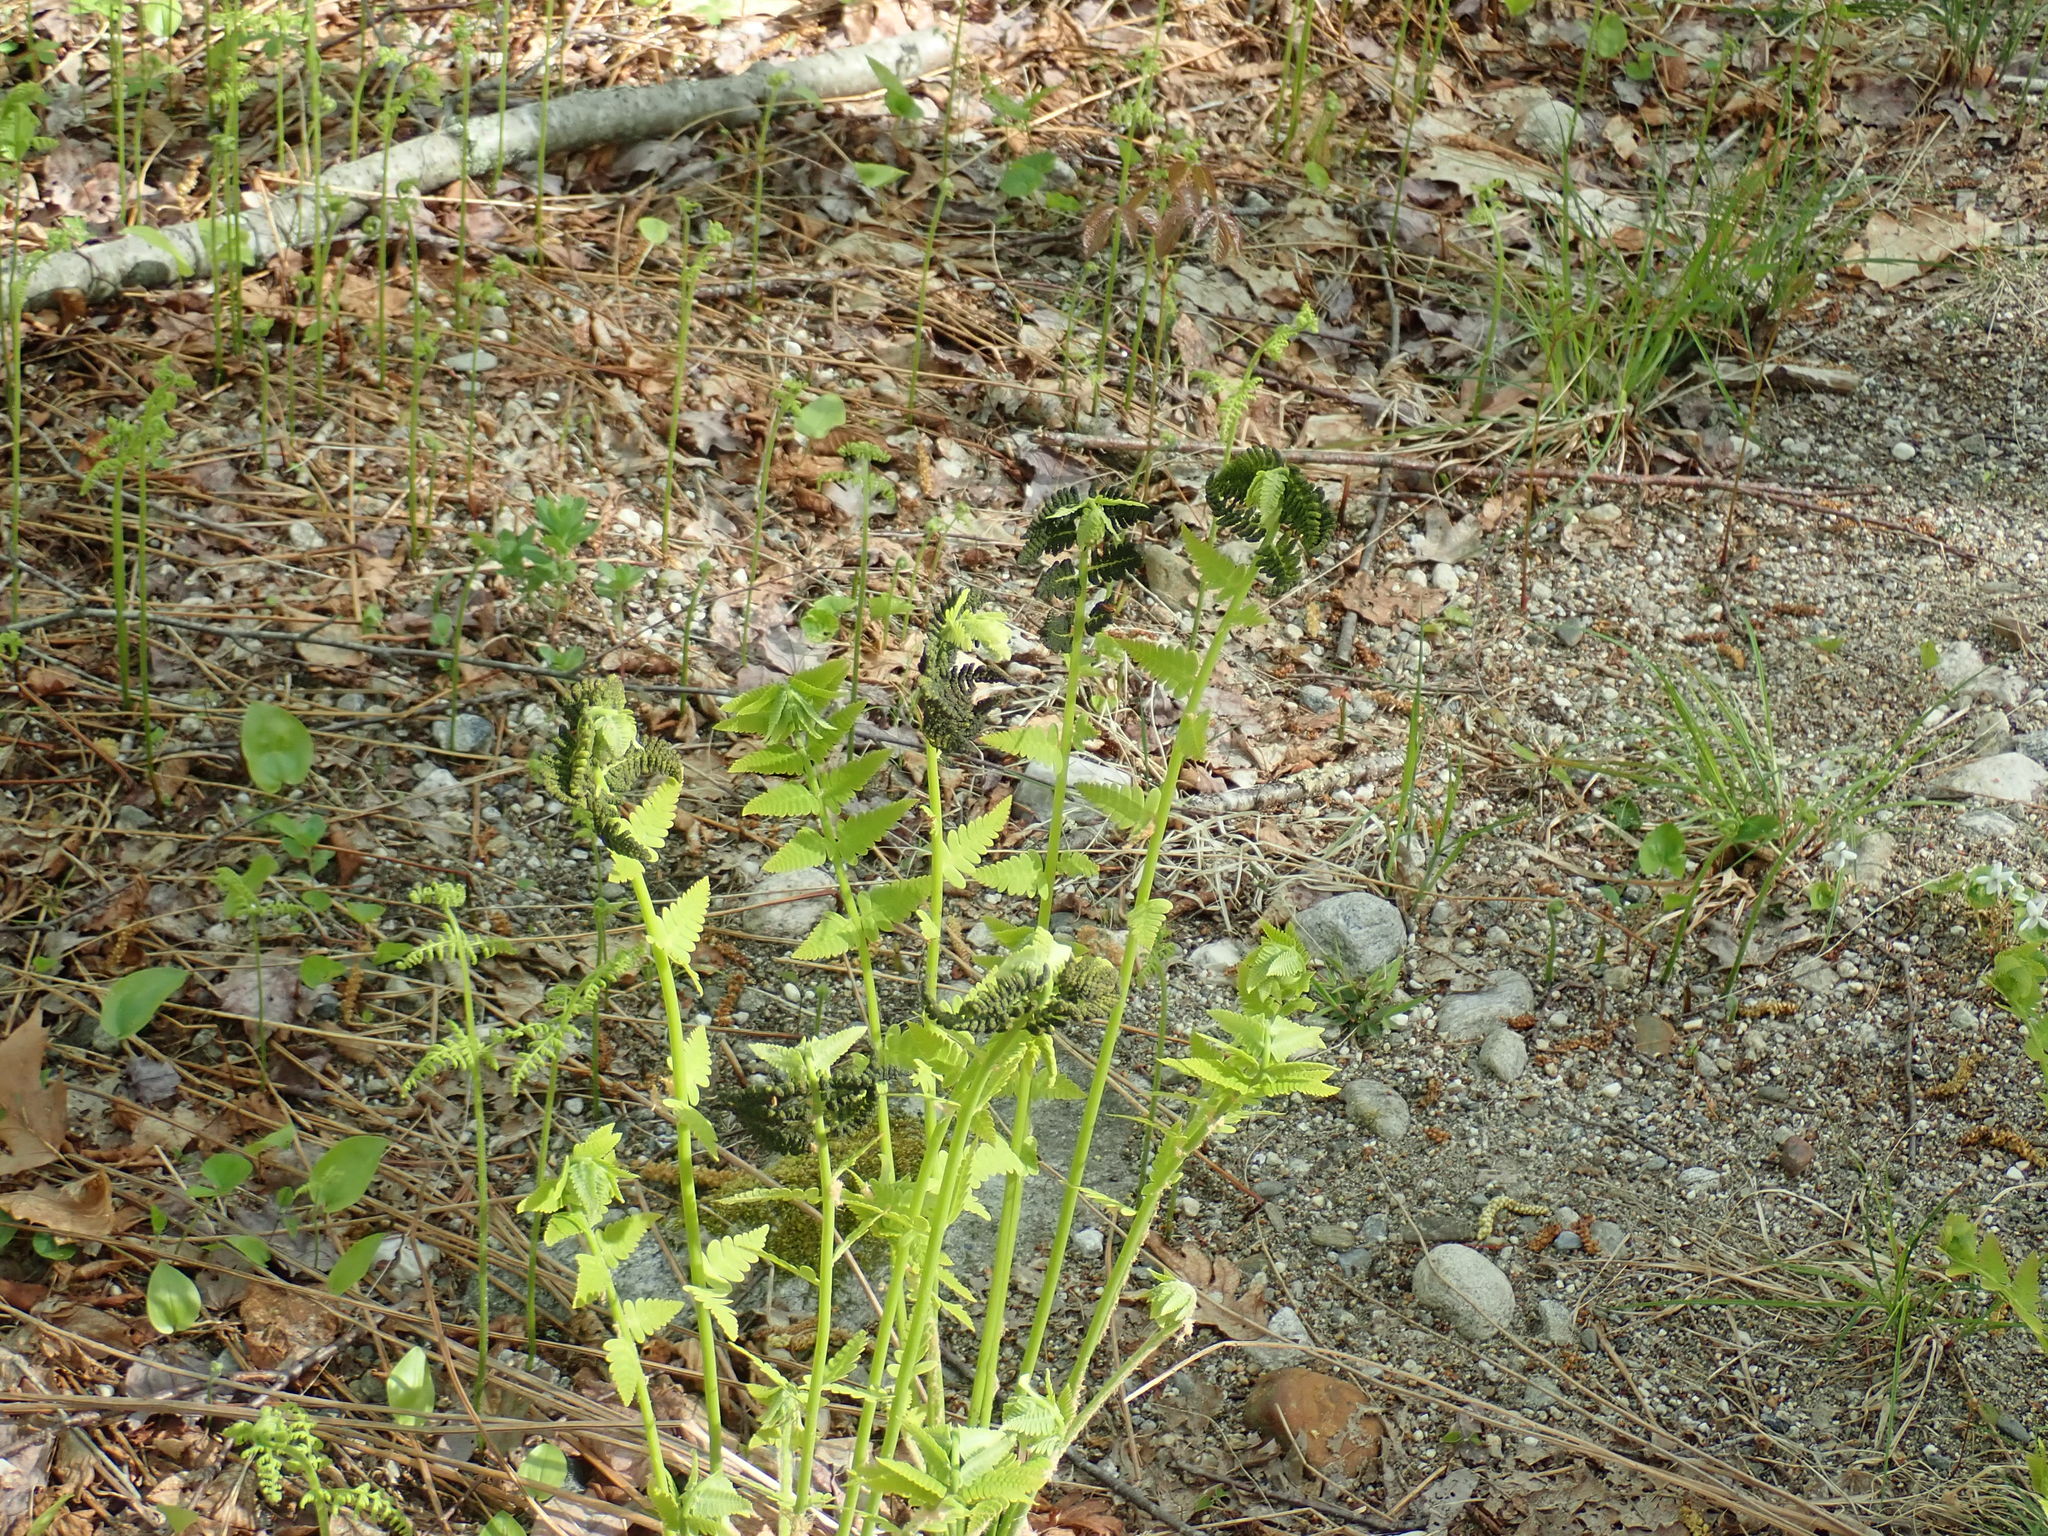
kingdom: Plantae
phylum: Tracheophyta
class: Polypodiopsida
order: Osmundales
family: Osmundaceae
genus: Claytosmunda
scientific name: Claytosmunda claytoniana
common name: Clayton's fern
